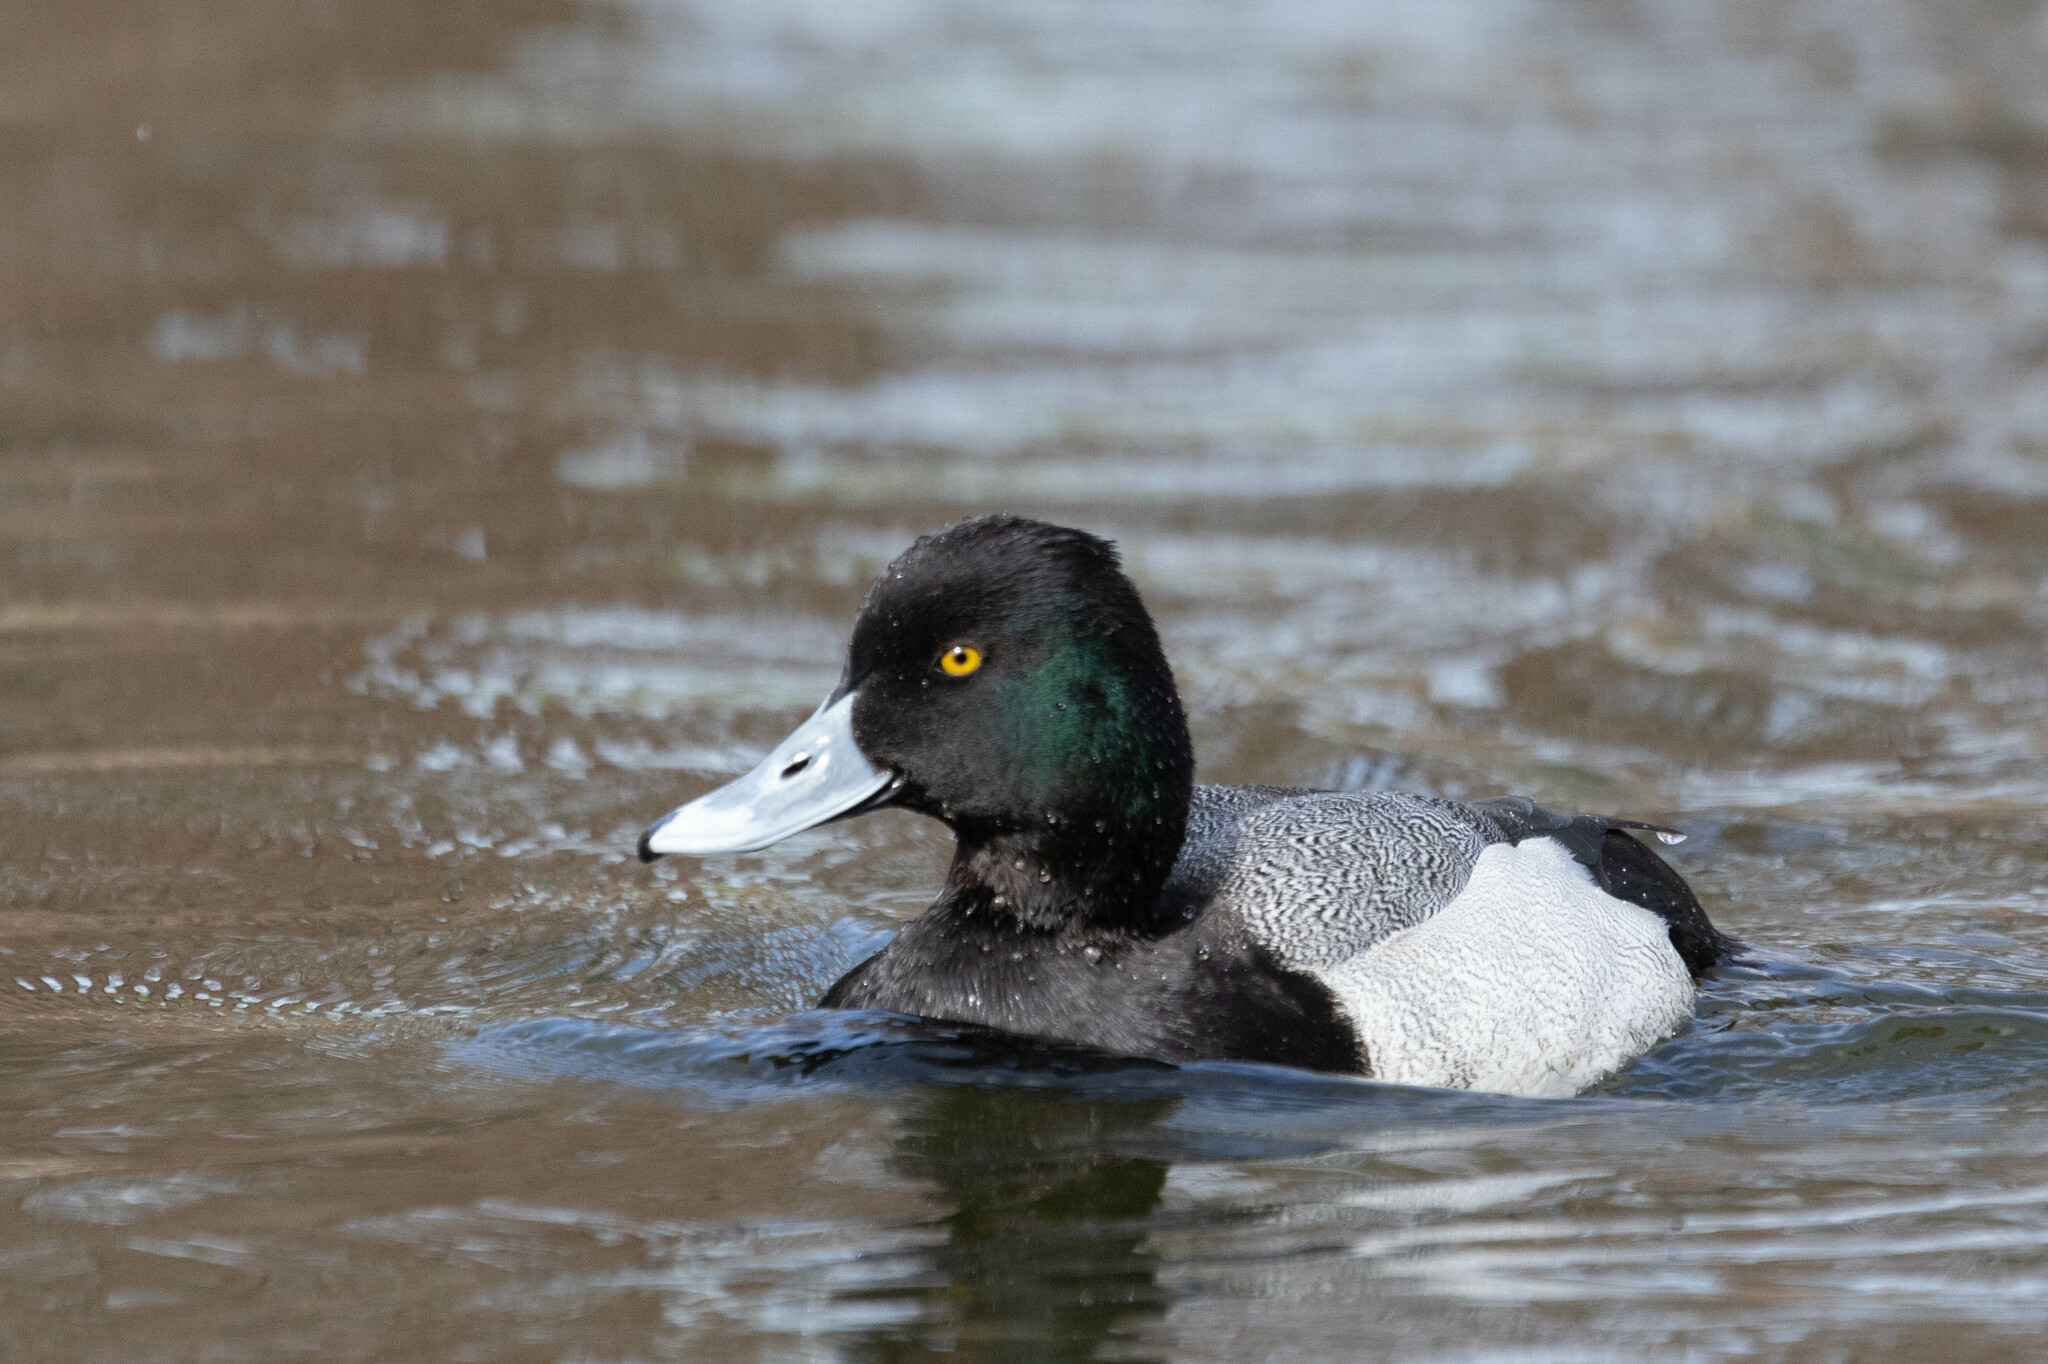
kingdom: Animalia
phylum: Chordata
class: Aves
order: Anseriformes
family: Anatidae
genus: Aythya
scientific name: Aythya affinis
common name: Lesser scaup
